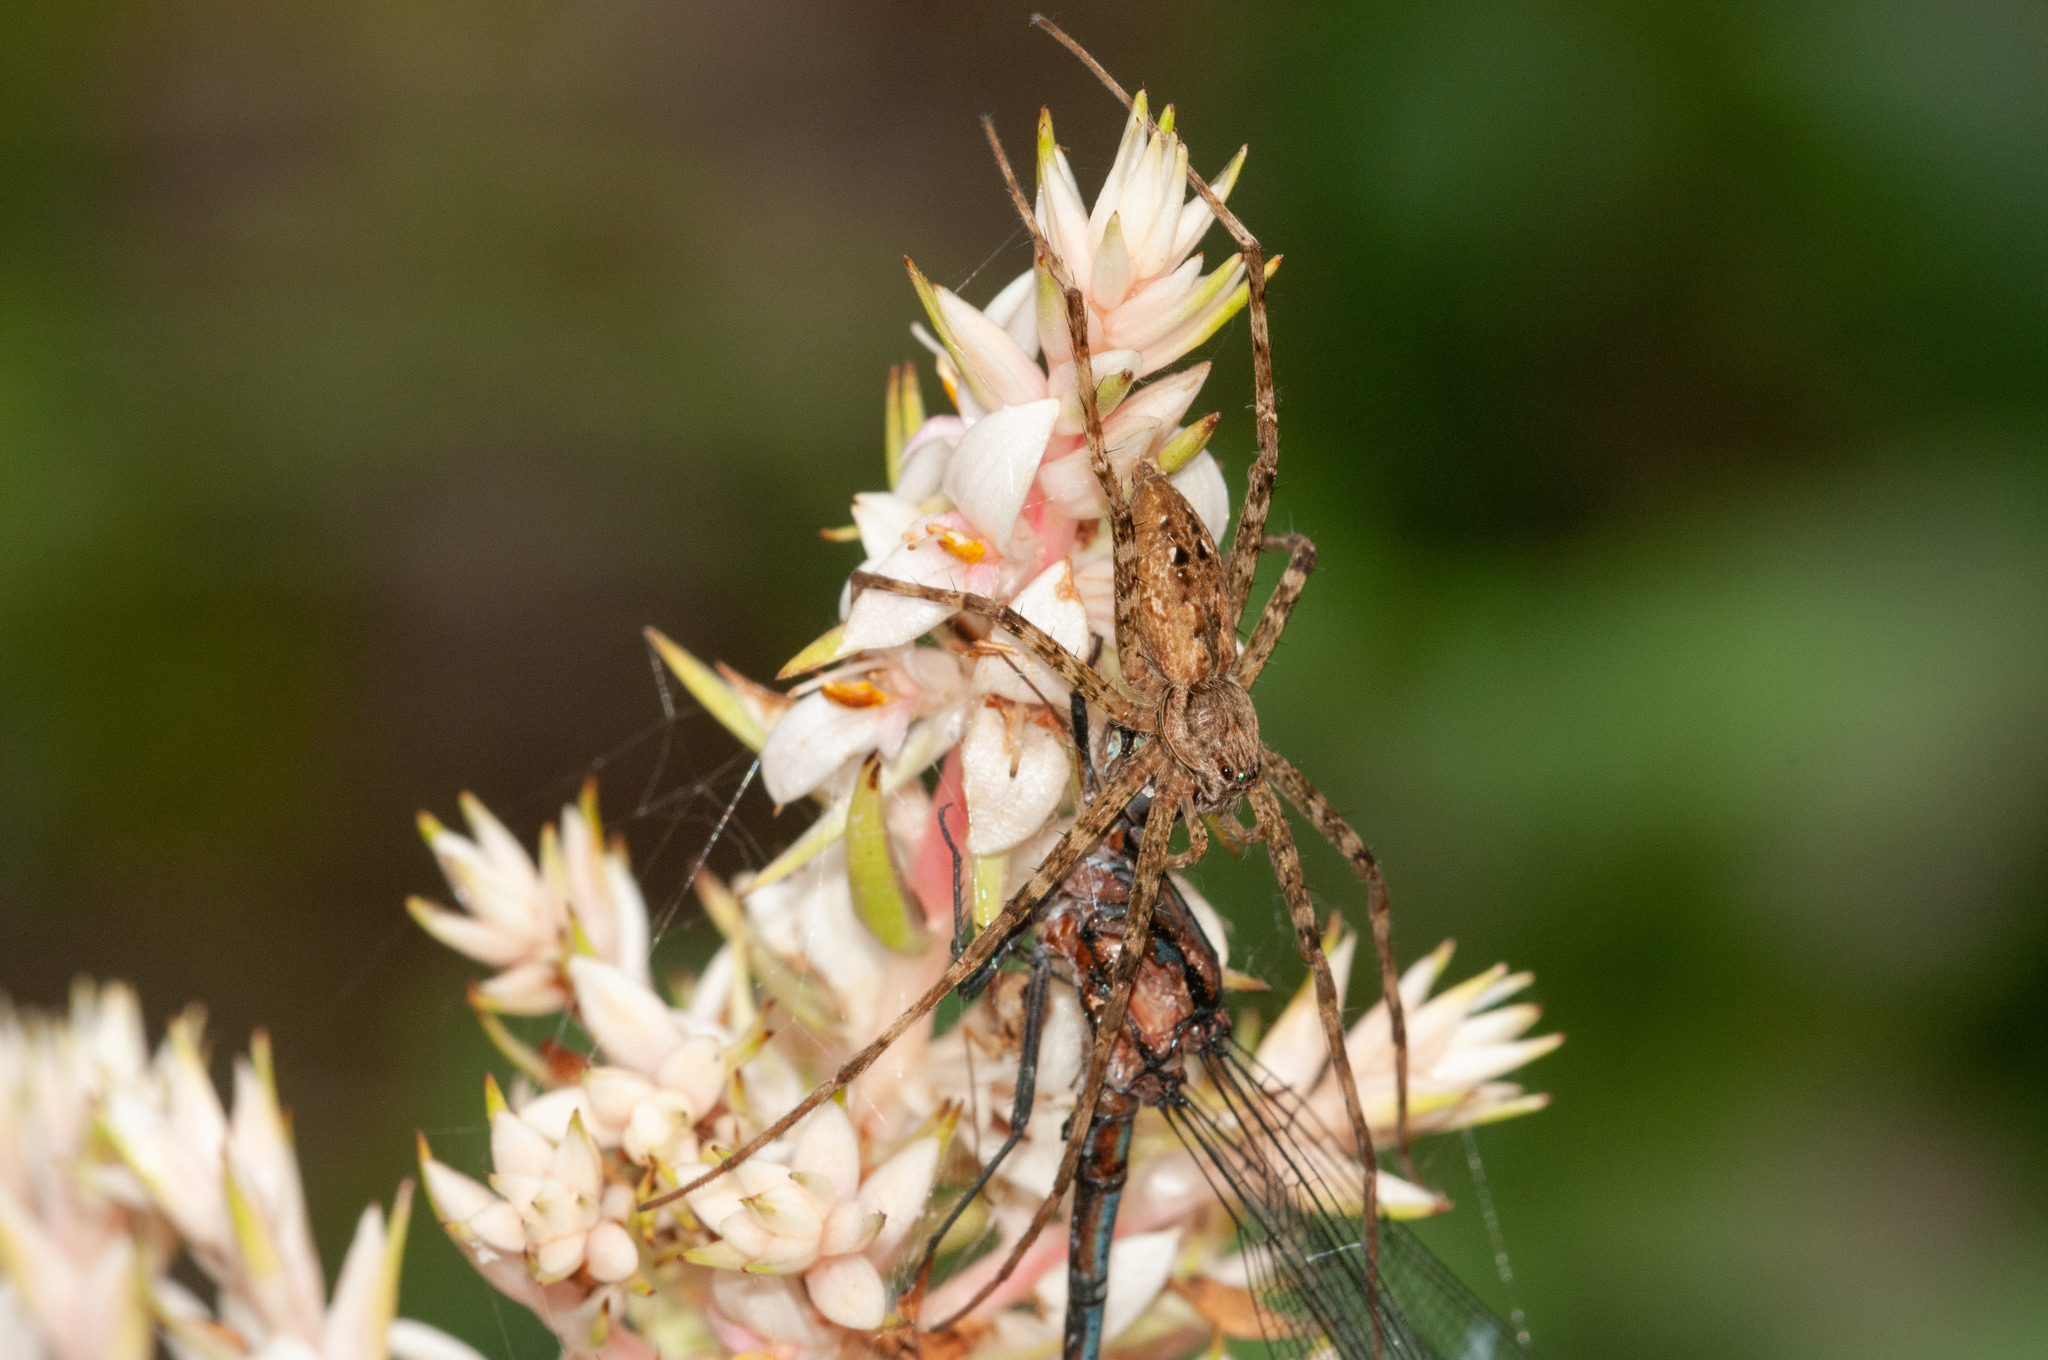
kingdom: Animalia
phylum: Arthropoda
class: Arachnida
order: Araneae
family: Pisauridae
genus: Megadolomedes
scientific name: Megadolomedes trux
